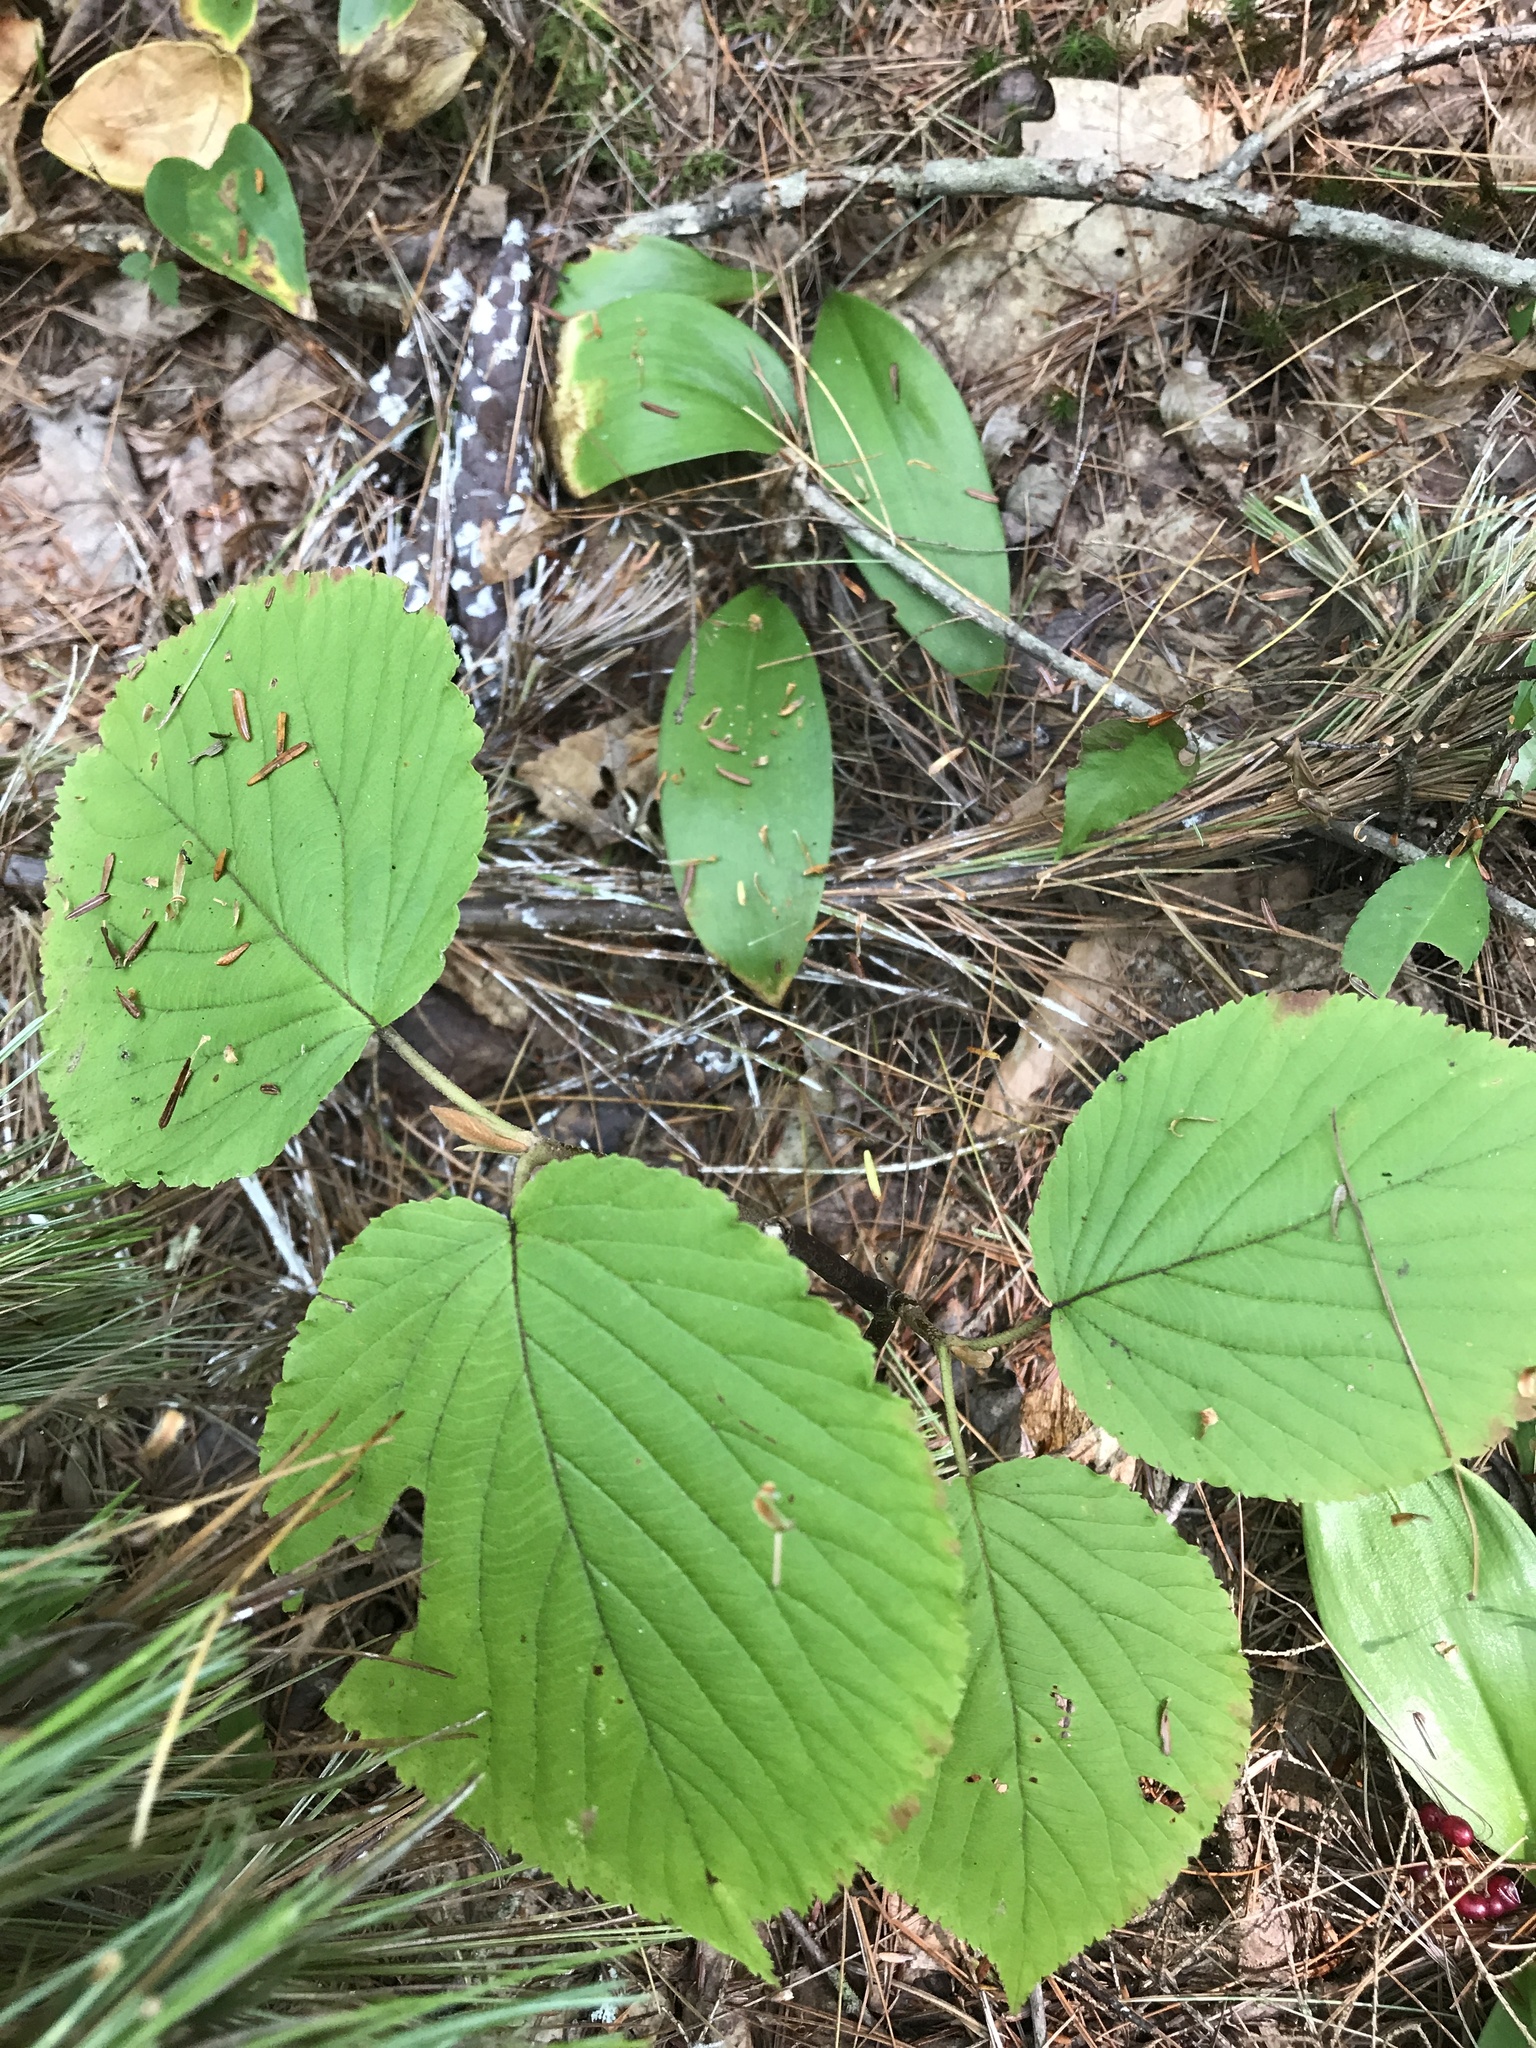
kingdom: Plantae
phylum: Tracheophyta
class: Magnoliopsida
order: Dipsacales
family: Viburnaceae
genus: Viburnum
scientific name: Viburnum lantanoides
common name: Hobblebush
